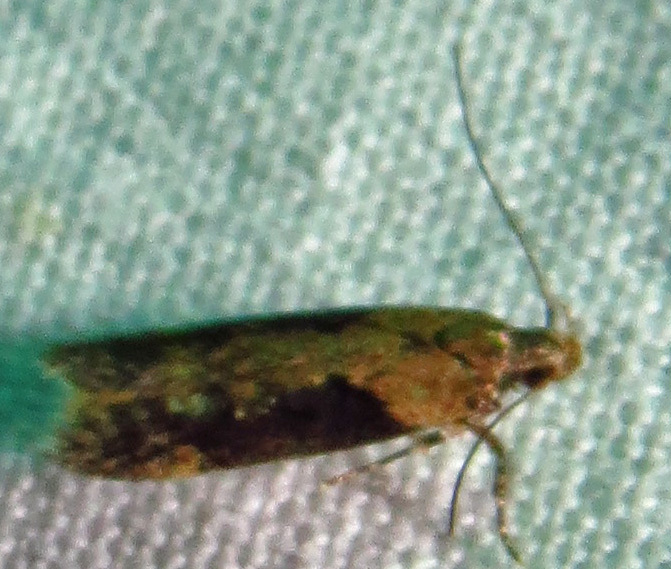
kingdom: Animalia
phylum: Arthropoda
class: Insecta
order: Lepidoptera
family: Gelechiidae
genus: Chionodes
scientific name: Chionodes mediofuscella
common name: Black-smudged chionodes moth
